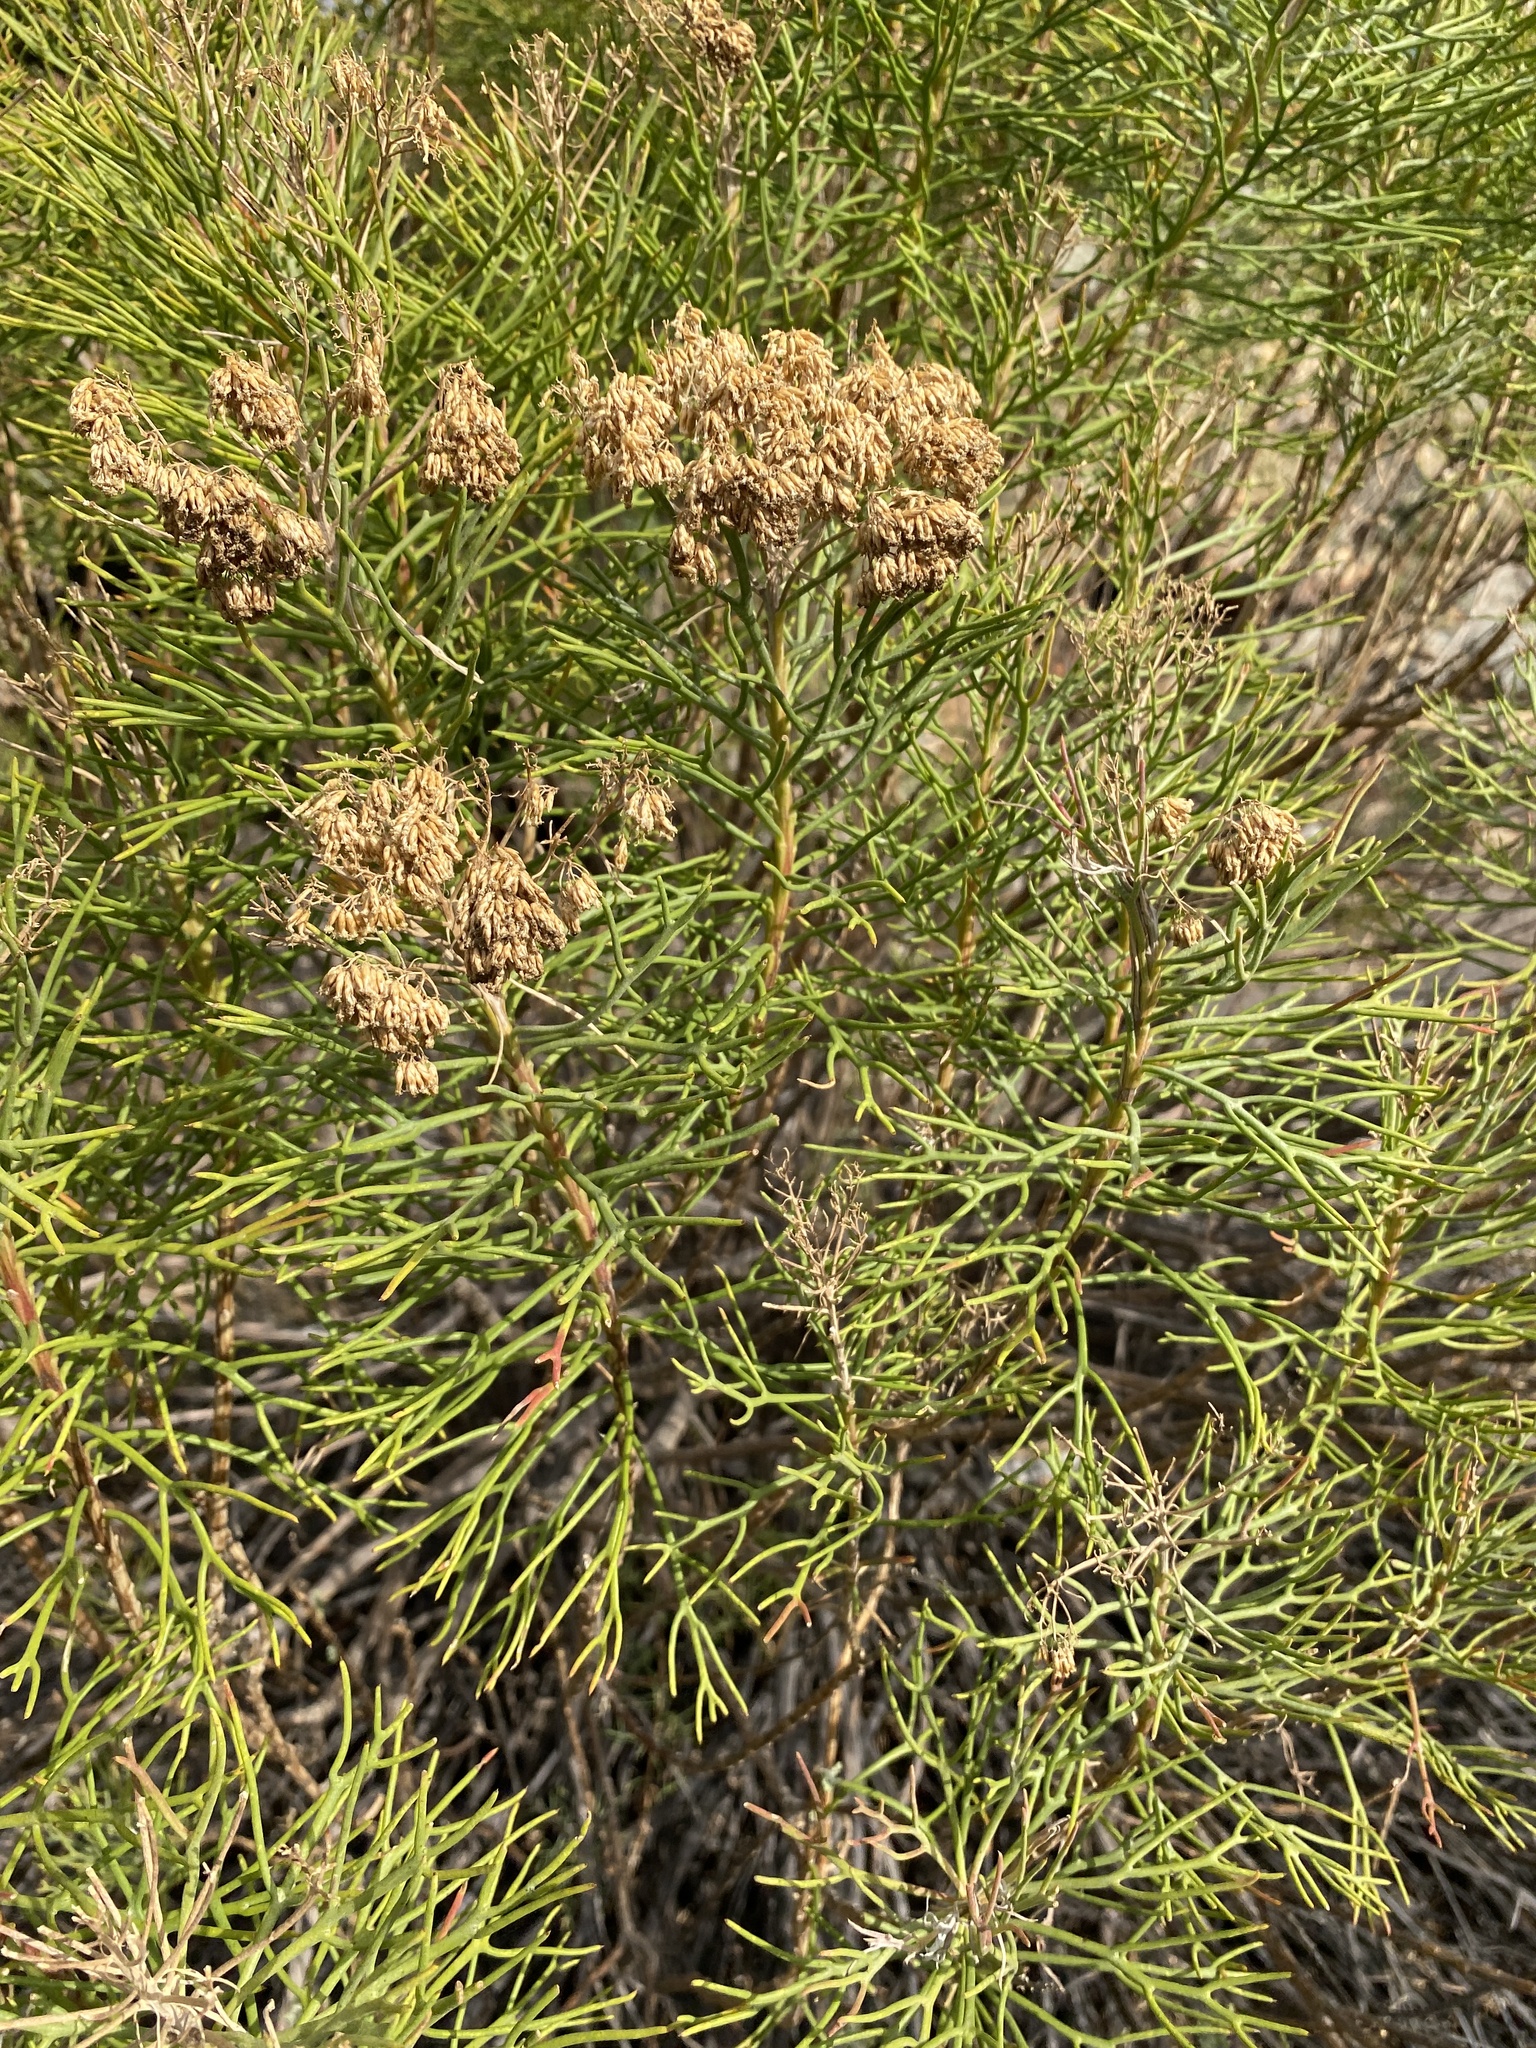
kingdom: Plantae
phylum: Tracheophyta
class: Magnoliopsida
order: Asterales
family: Asteraceae
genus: Hymenolepis
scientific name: Hymenolepis crithmifolia
